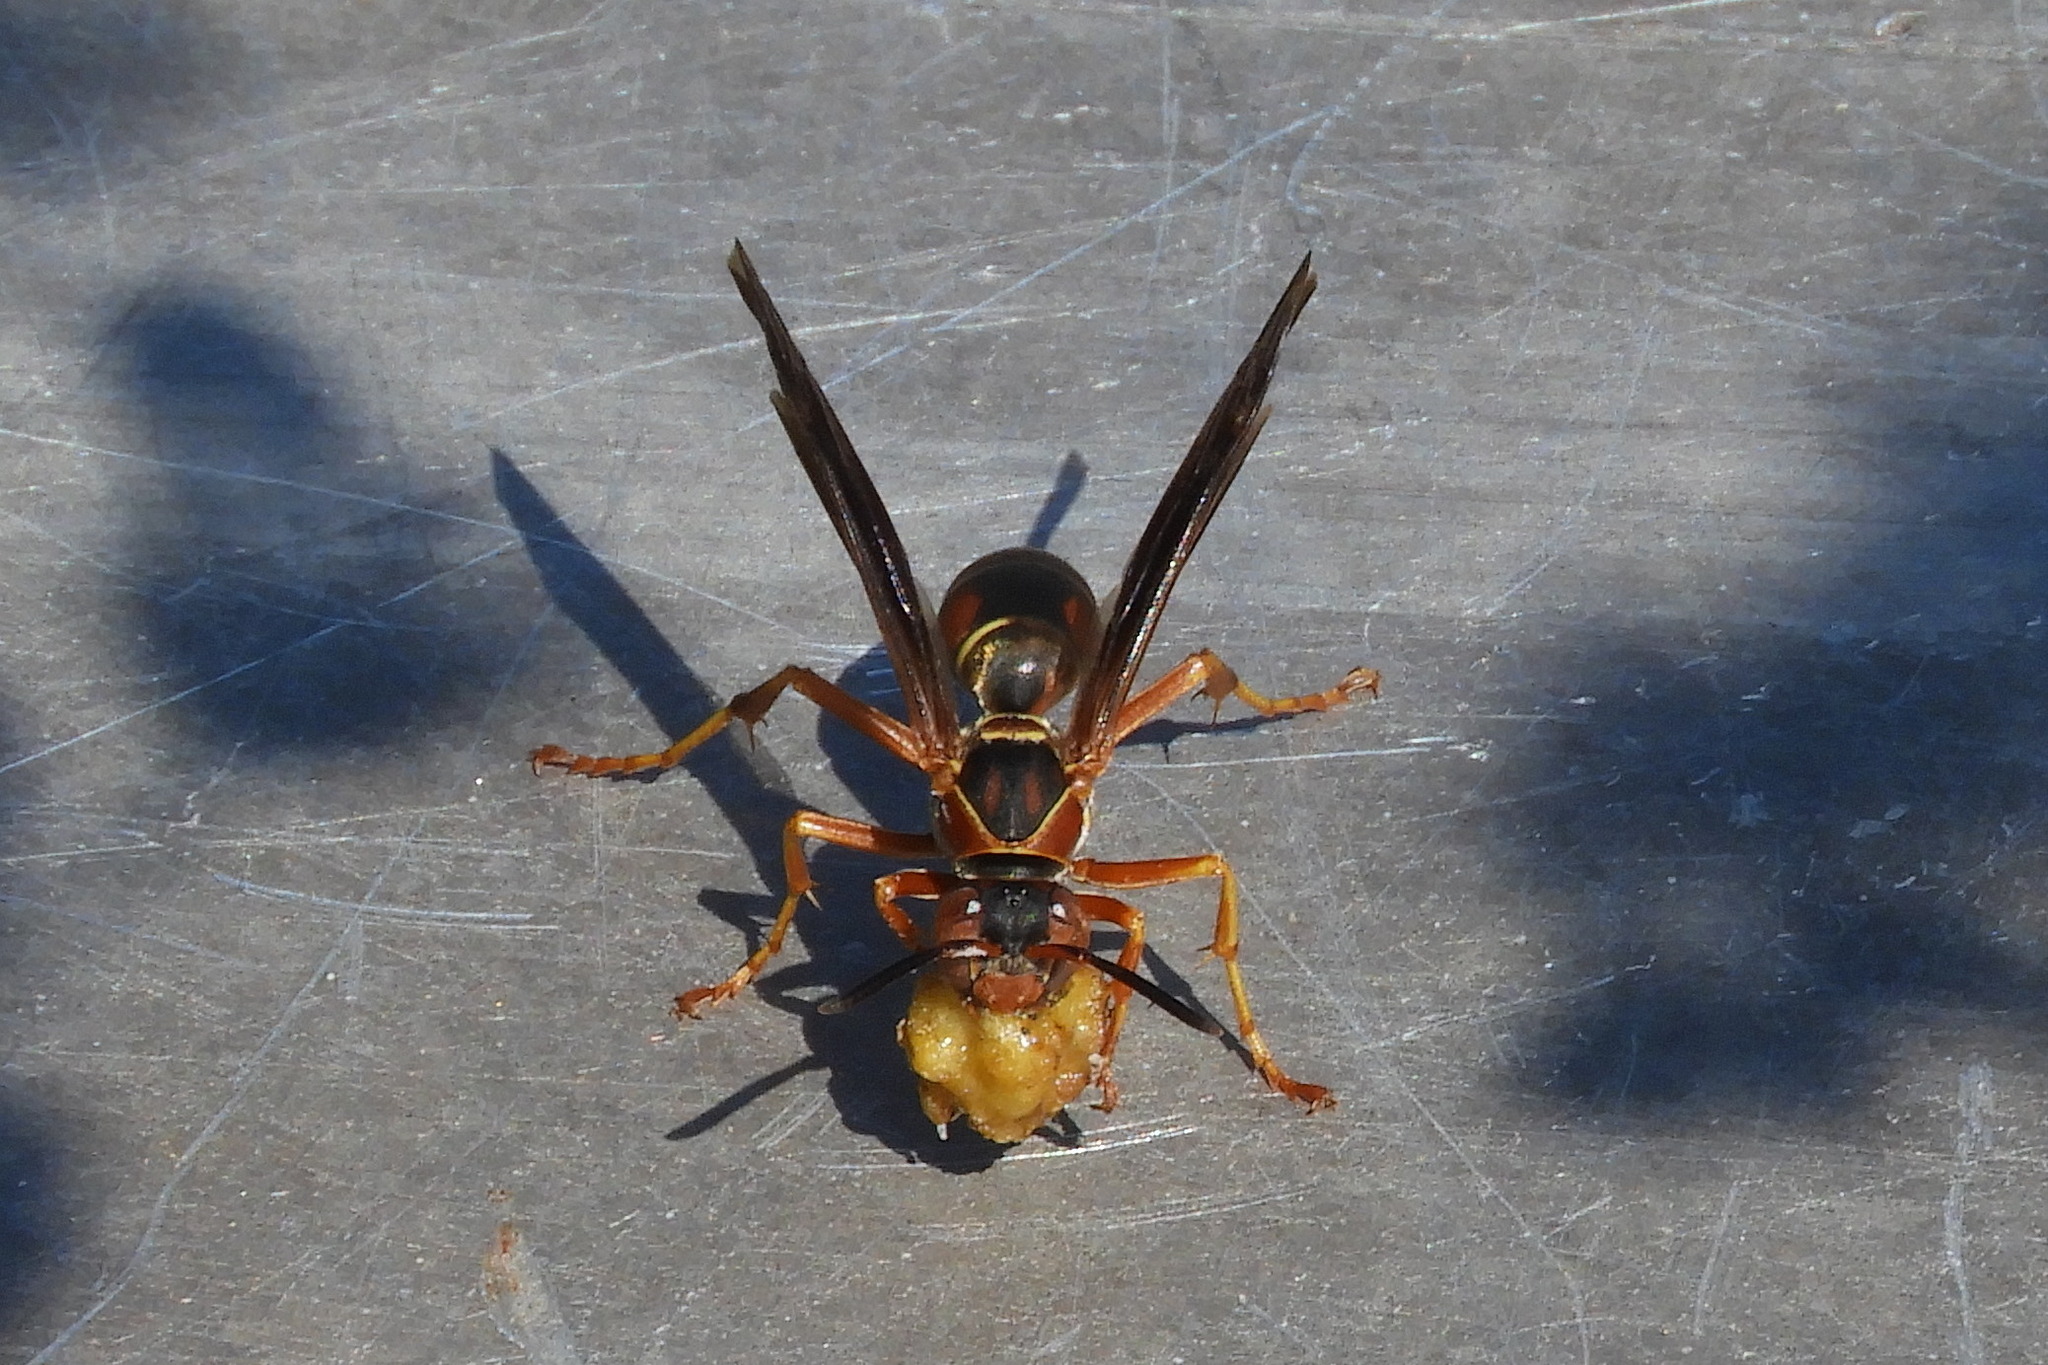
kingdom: Animalia
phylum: Arthropoda
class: Insecta
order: Hymenoptera
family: Eumenidae
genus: Polistes
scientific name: Polistes fuscatus
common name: Dark paper wasp
